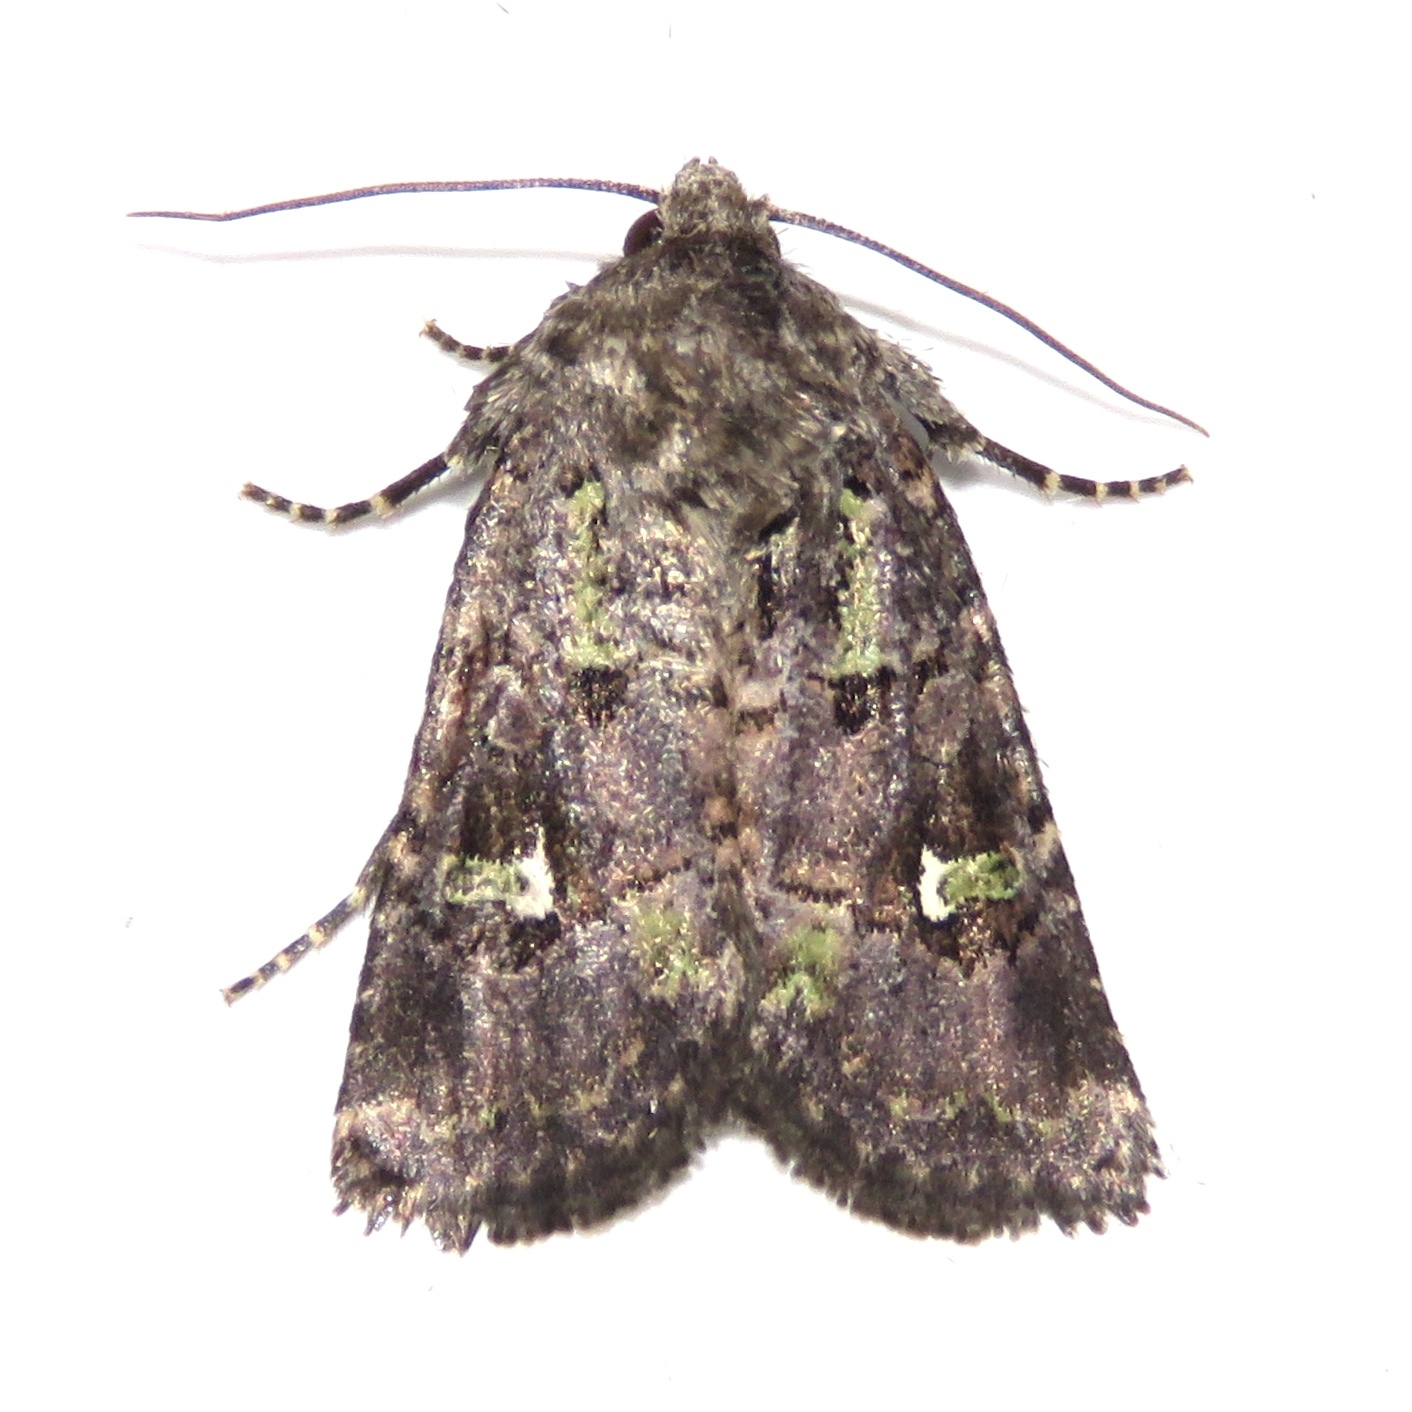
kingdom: Animalia
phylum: Arthropoda
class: Insecta
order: Lepidoptera
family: Noctuidae
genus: Lacinipolia
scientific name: Lacinipolia renigera
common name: Kidney-spotted minor
